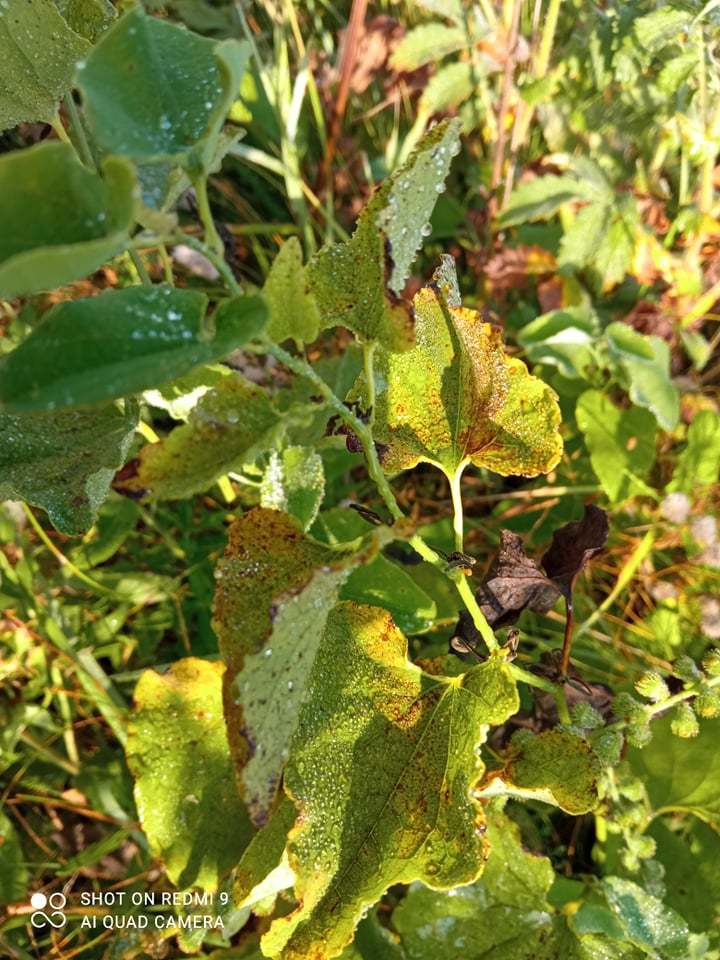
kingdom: Plantae
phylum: Tracheophyta
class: Magnoliopsida
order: Piperales
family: Aristolochiaceae
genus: Aristolochia
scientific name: Aristolochia clematitis
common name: Birthwort
